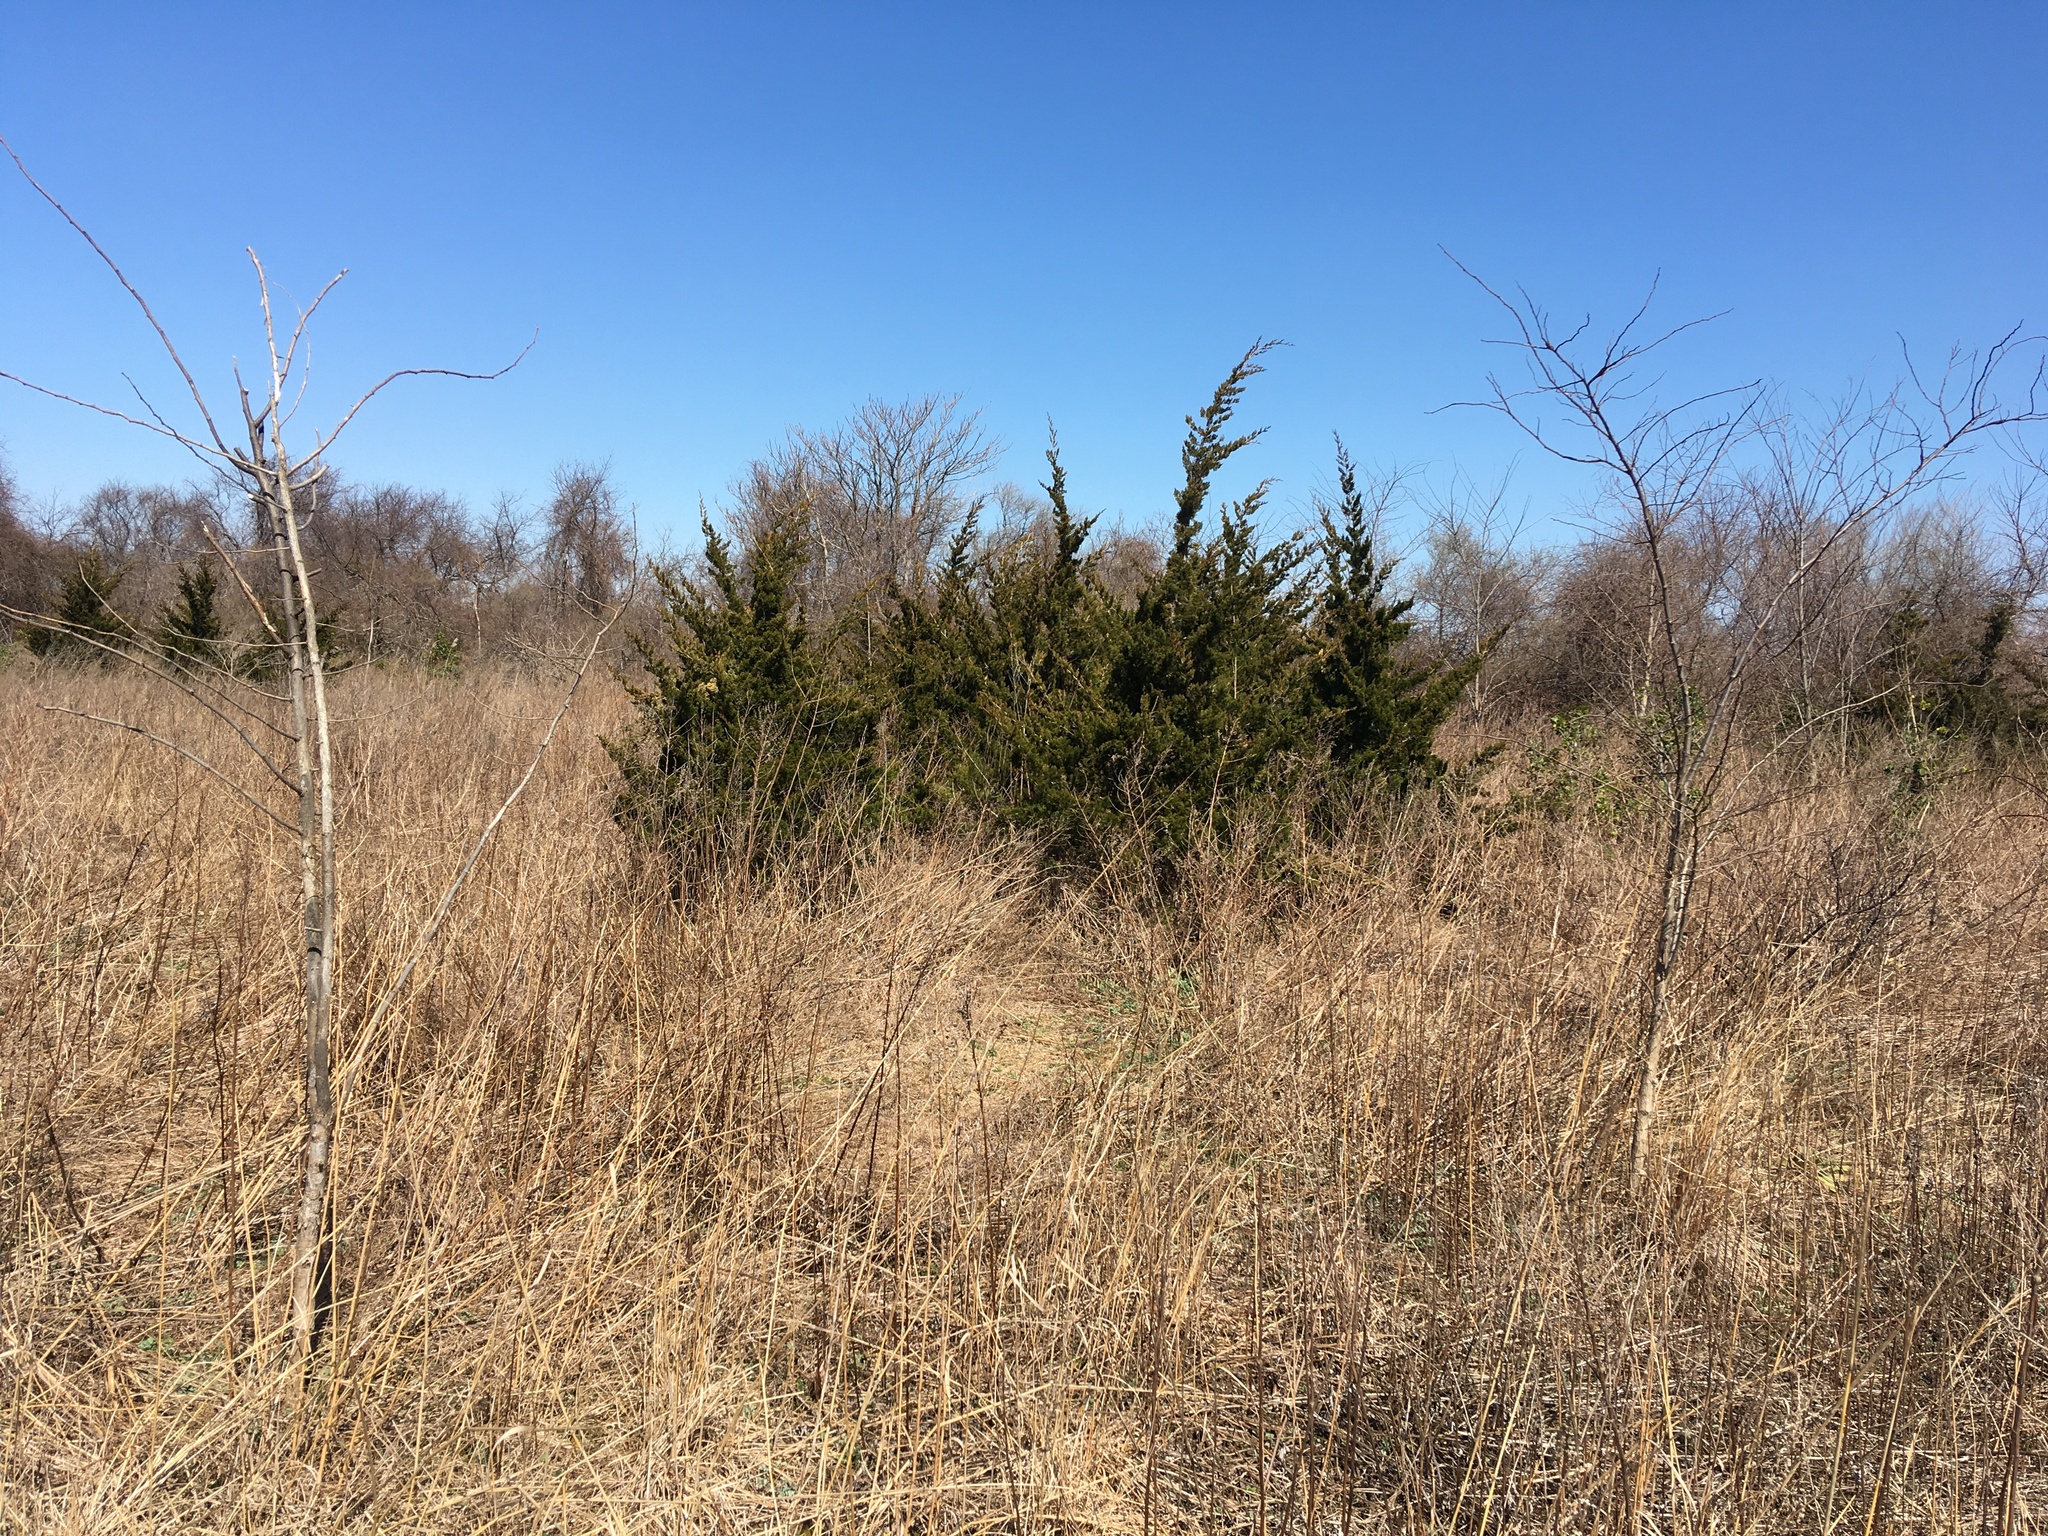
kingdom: Plantae
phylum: Tracheophyta
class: Pinopsida
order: Pinales
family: Cupressaceae
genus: Juniperus
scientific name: Juniperus virginiana
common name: Red juniper
